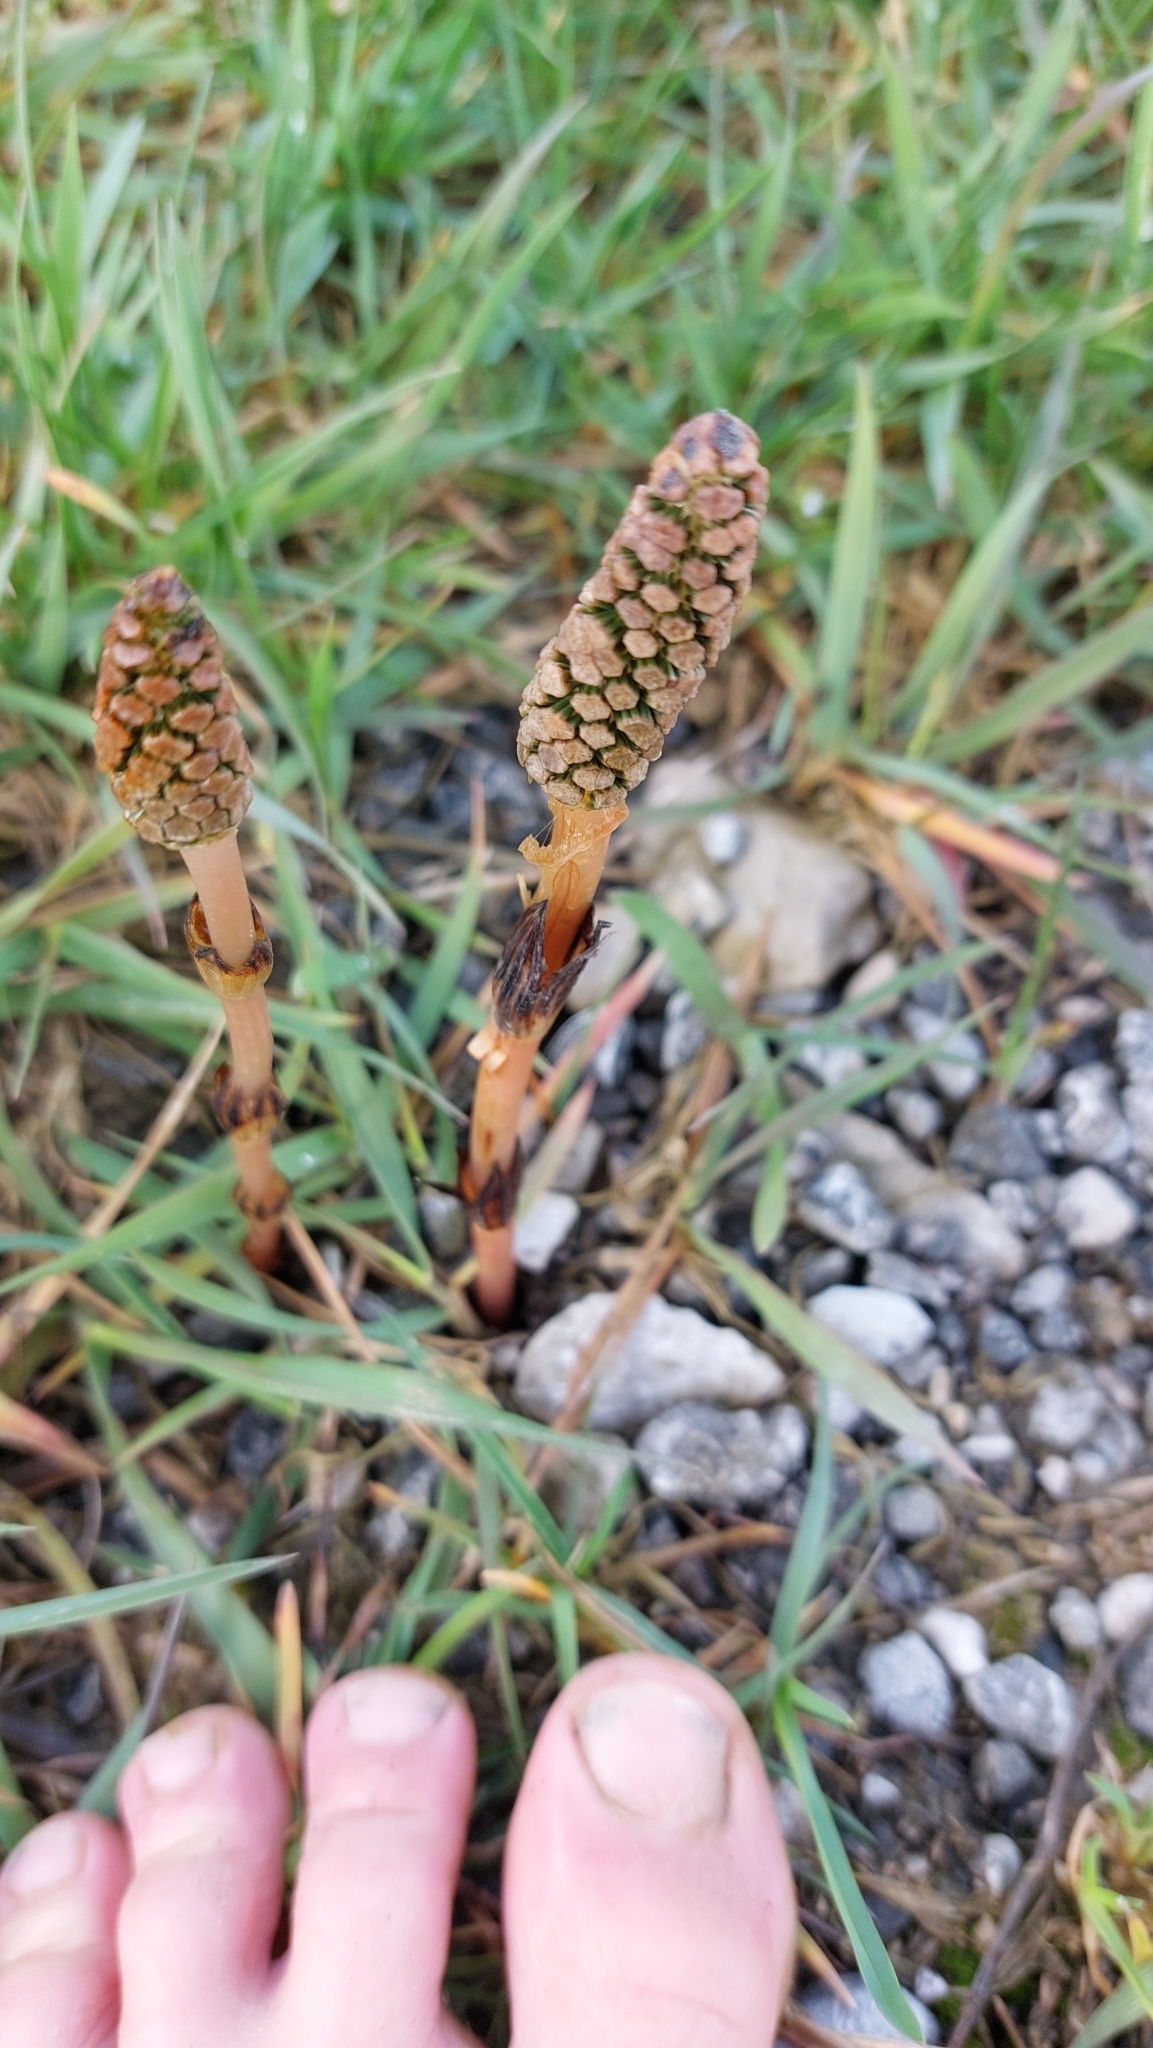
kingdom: Plantae
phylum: Tracheophyta
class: Polypodiopsida
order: Equisetales
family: Equisetaceae
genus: Equisetum
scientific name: Equisetum arvense
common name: Field horsetail
